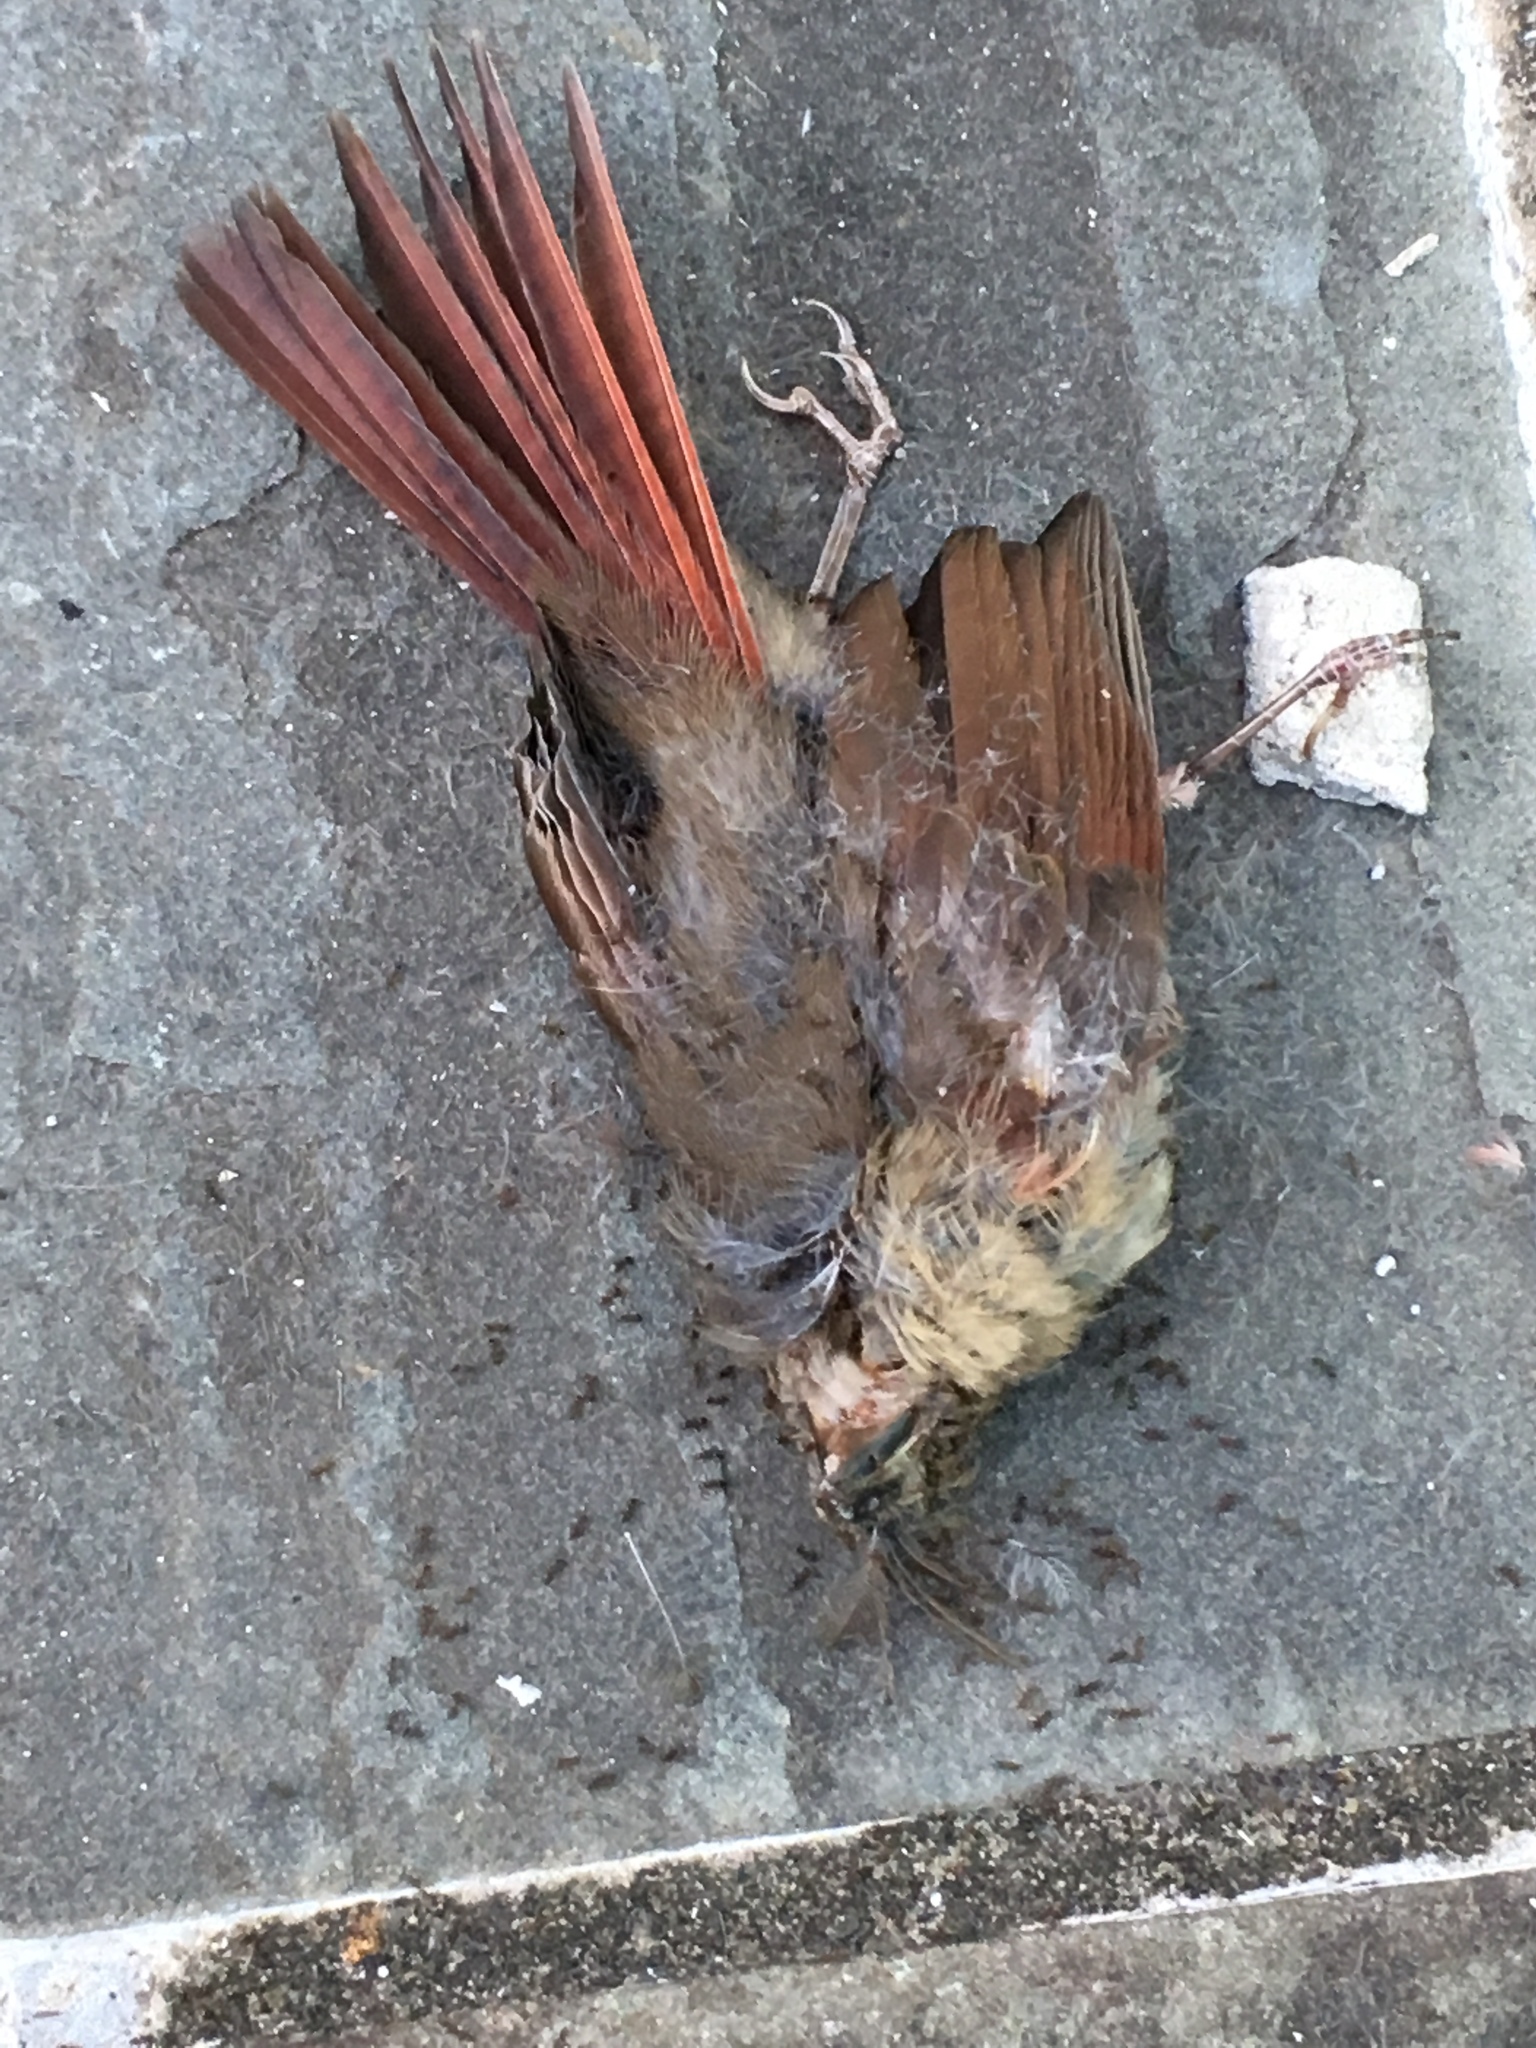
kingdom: Animalia
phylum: Chordata
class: Aves
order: Passeriformes
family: Cardinalidae
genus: Cardinalis
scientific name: Cardinalis cardinalis
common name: Northern cardinal
